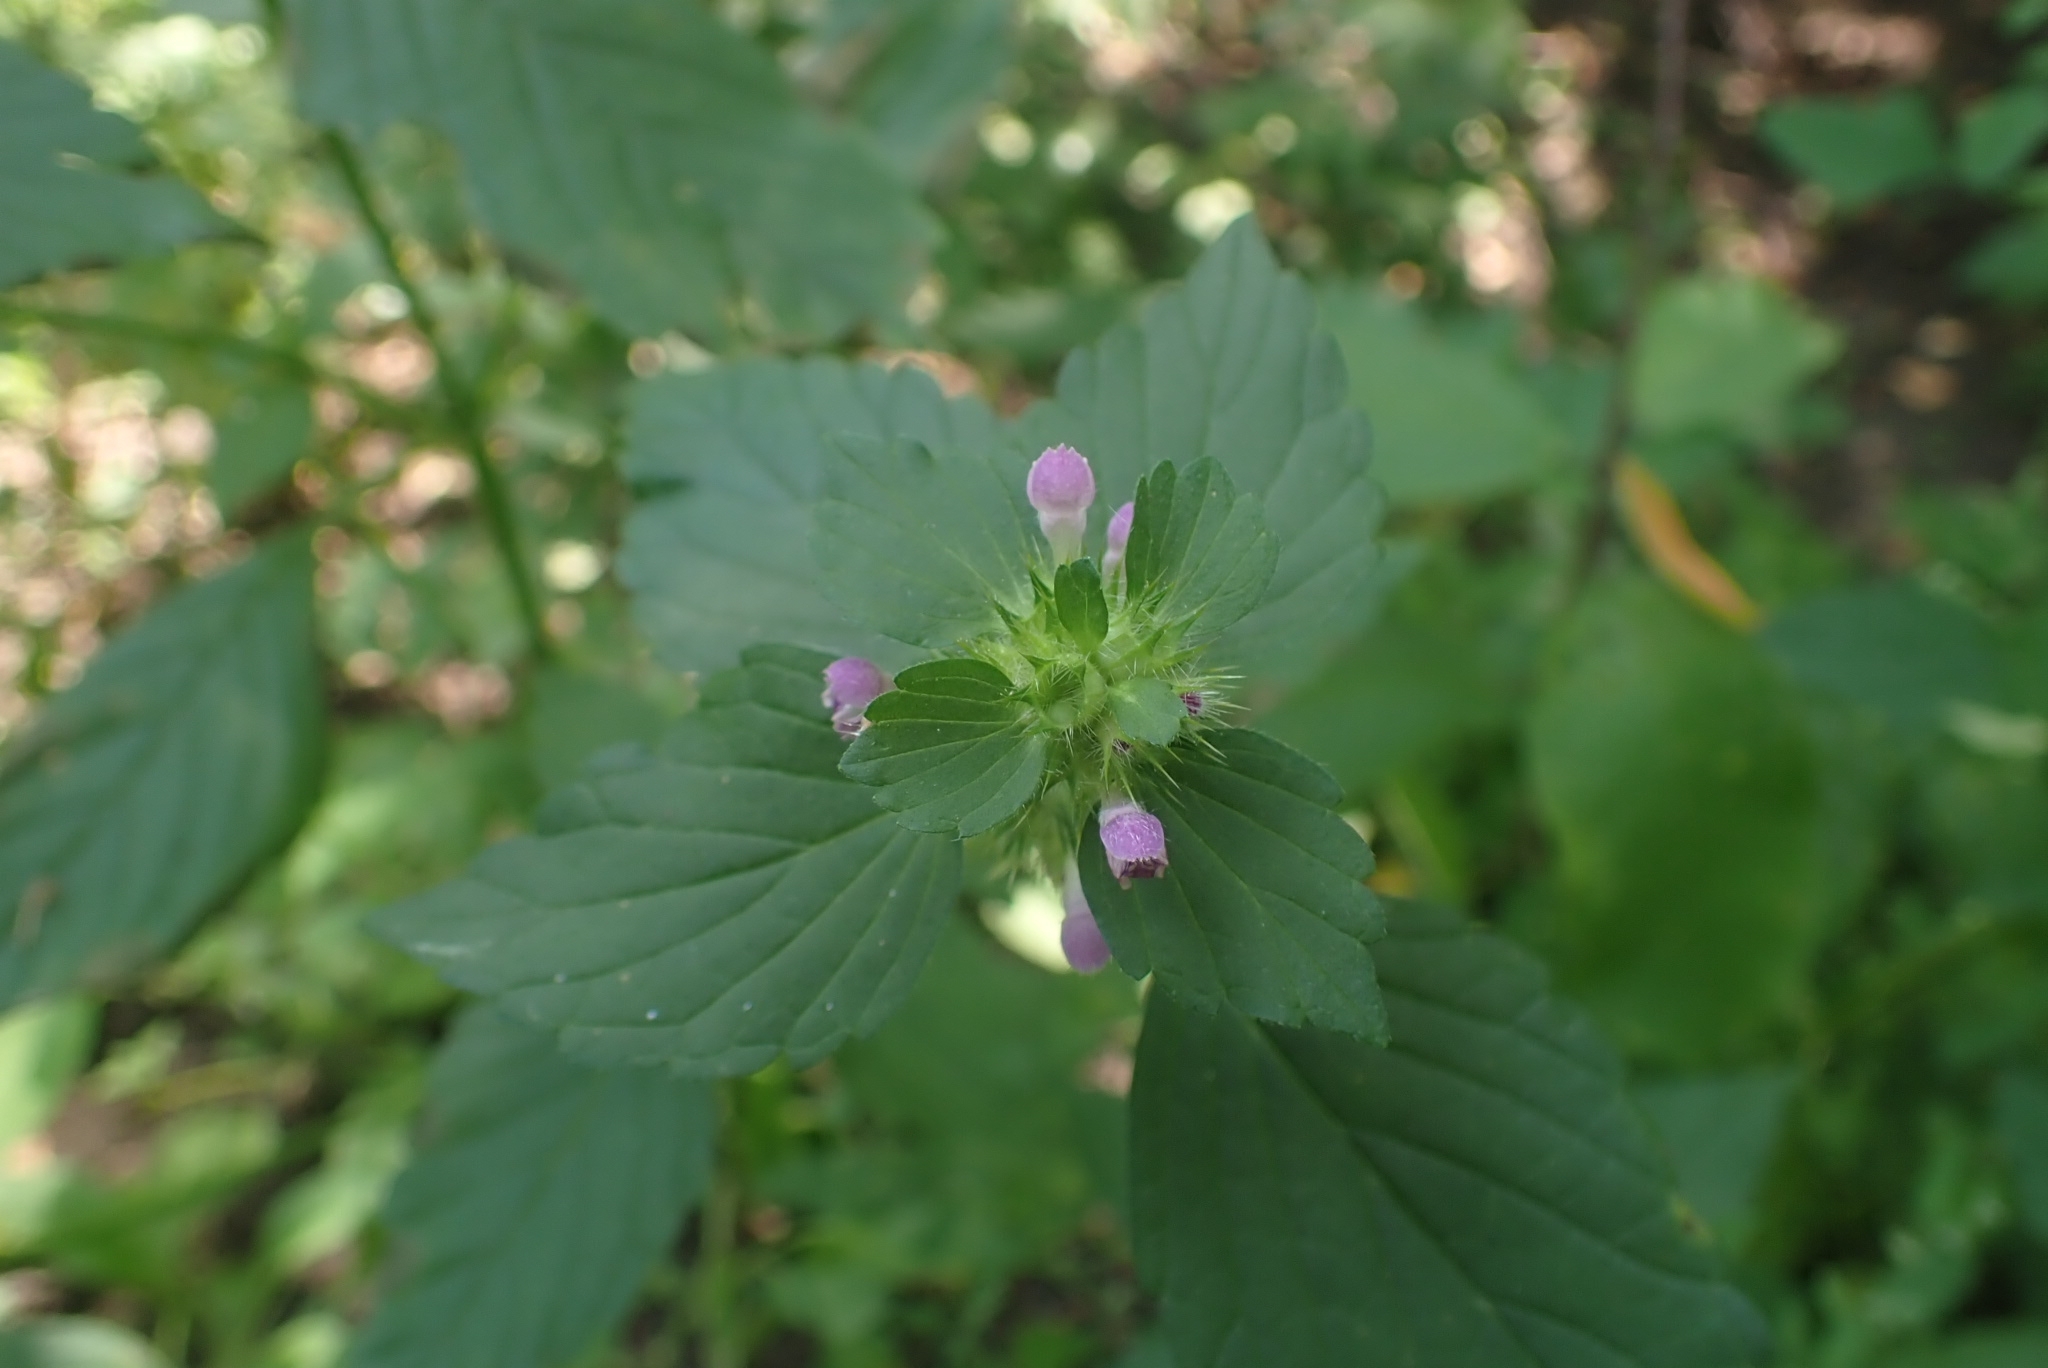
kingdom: Plantae
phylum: Tracheophyta
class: Magnoliopsida
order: Lamiales
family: Lamiaceae
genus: Galeopsis
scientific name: Galeopsis bifida
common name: Bifid hemp-nettle
